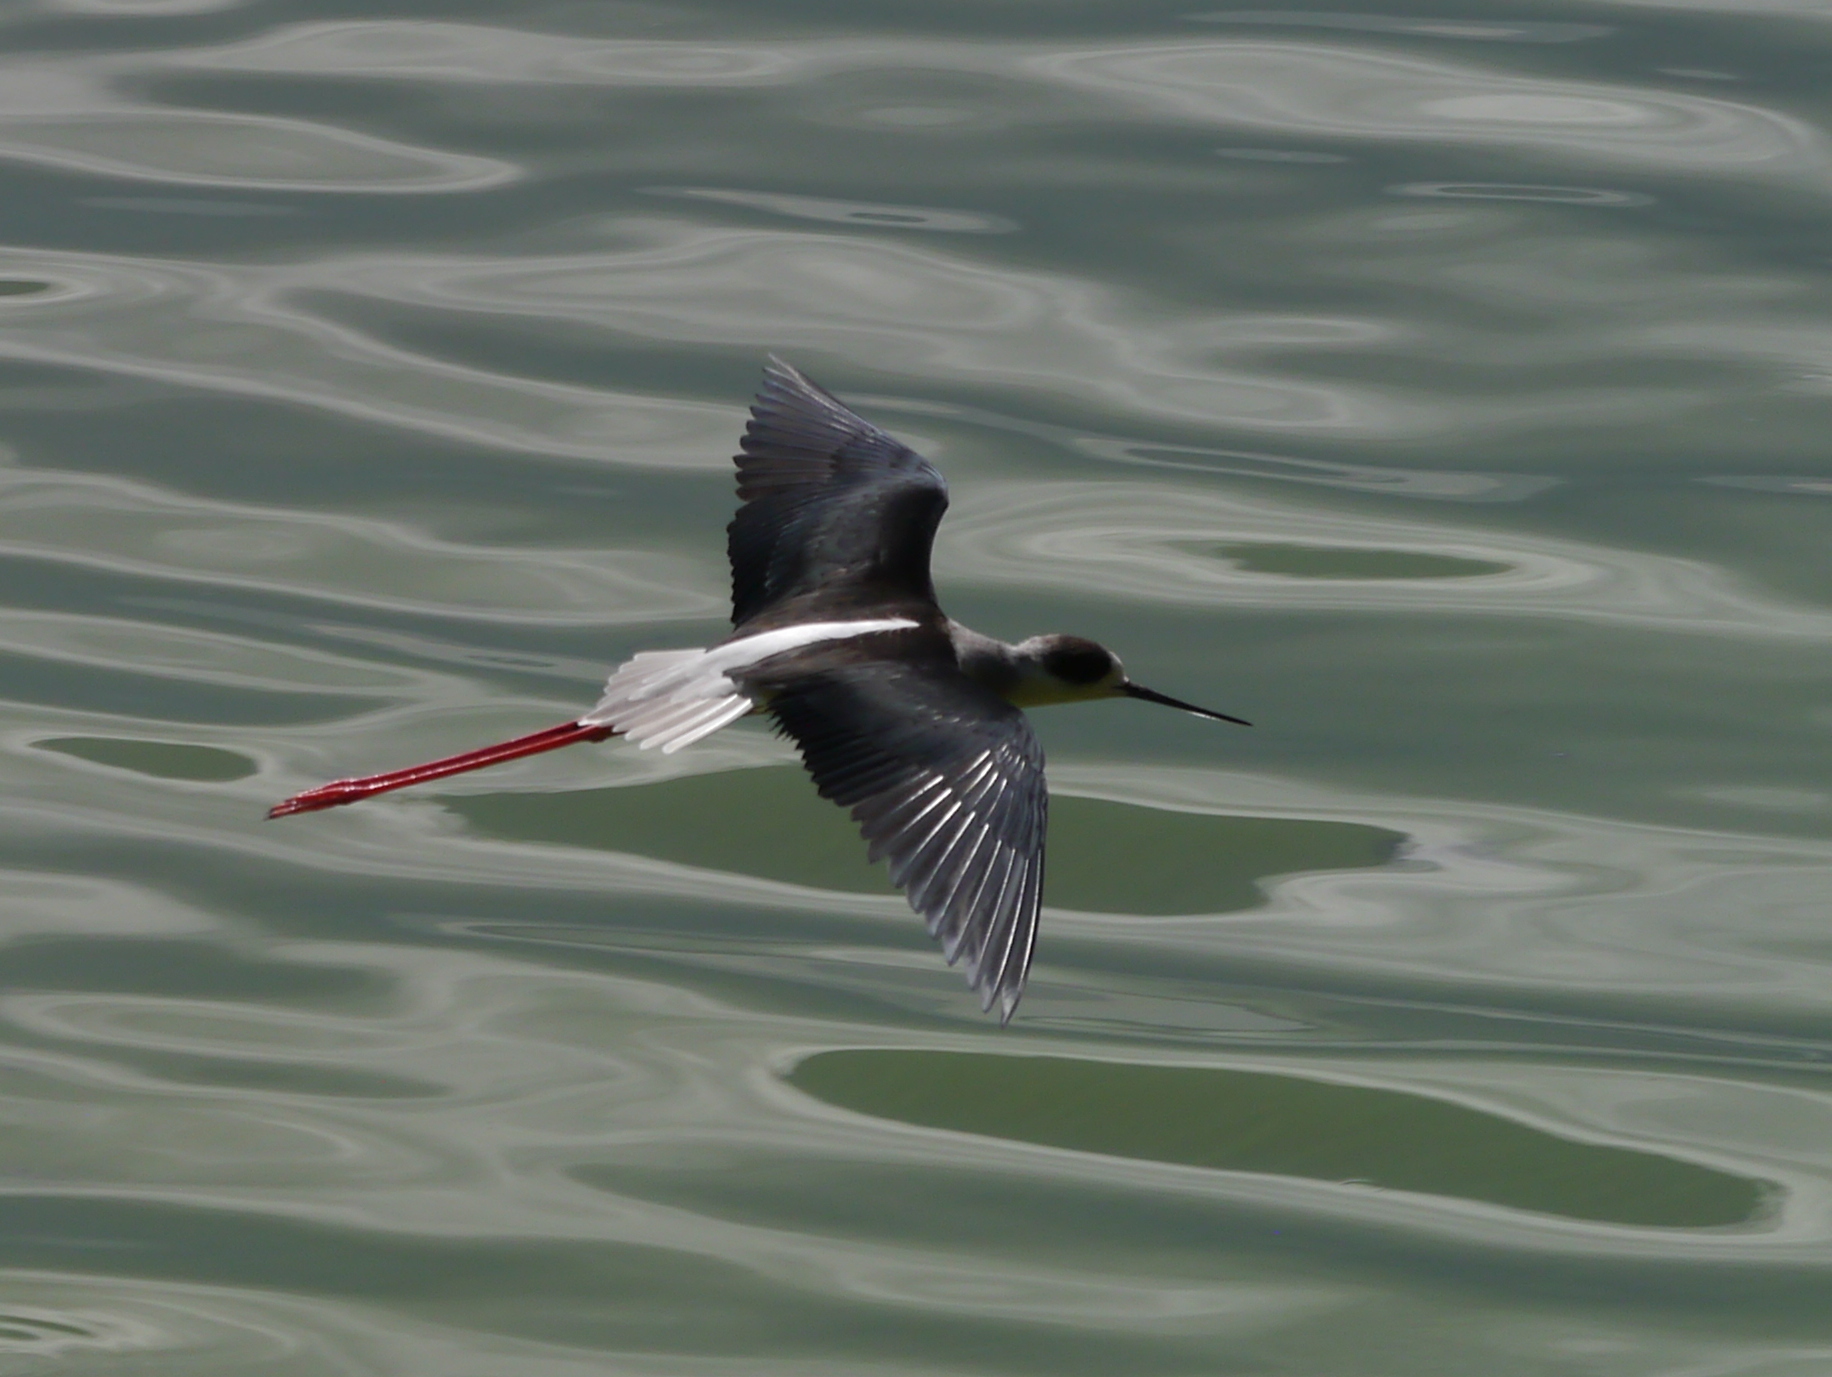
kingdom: Animalia
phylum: Chordata
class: Aves
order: Charadriiformes
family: Recurvirostridae
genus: Himantopus
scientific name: Himantopus himantopus
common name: Black-winged stilt
